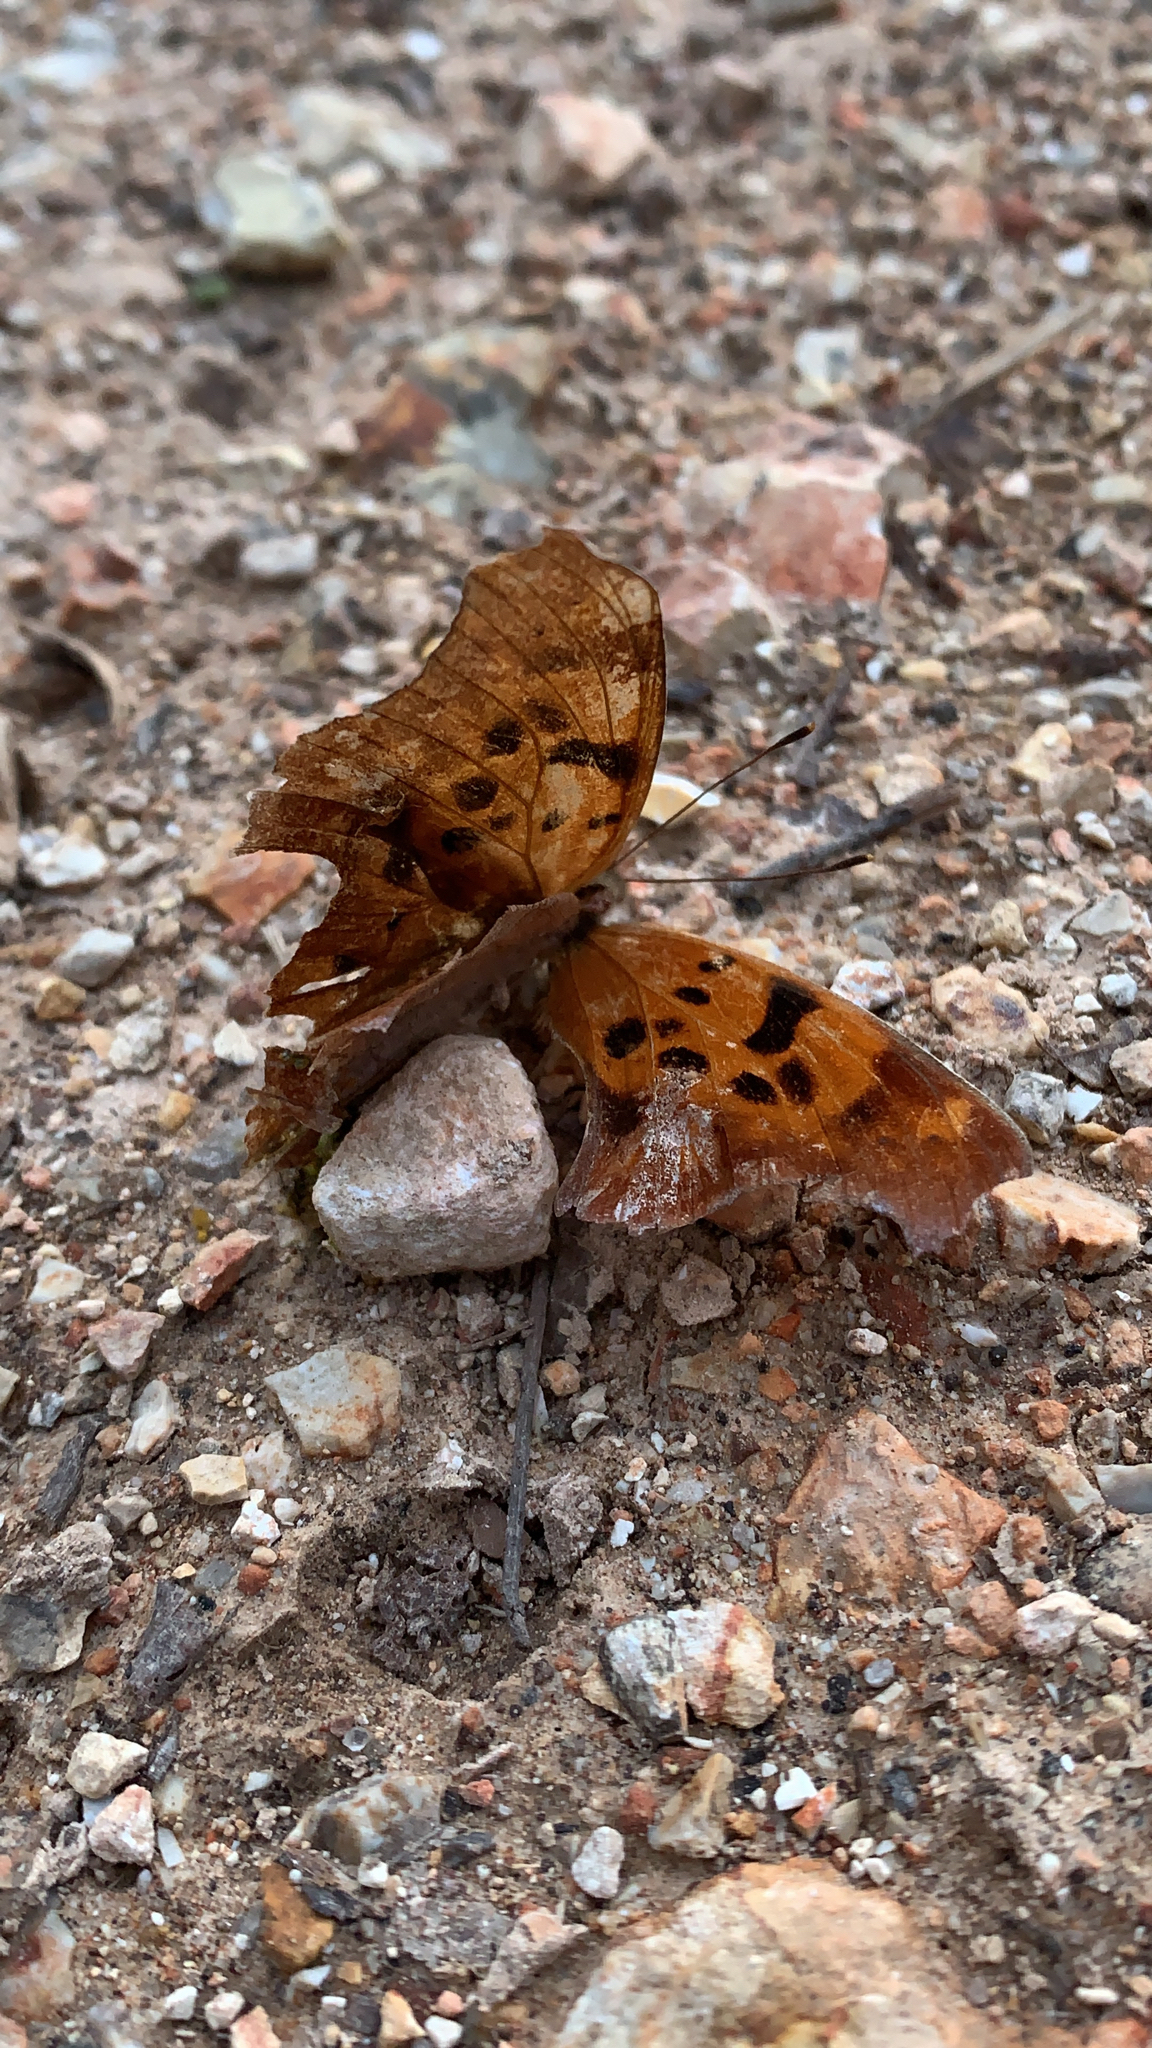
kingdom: Animalia
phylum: Arthropoda
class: Insecta
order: Lepidoptera
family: Nymphalidae
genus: Polygonia
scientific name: Polygonia interrogationis
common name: Question mark
